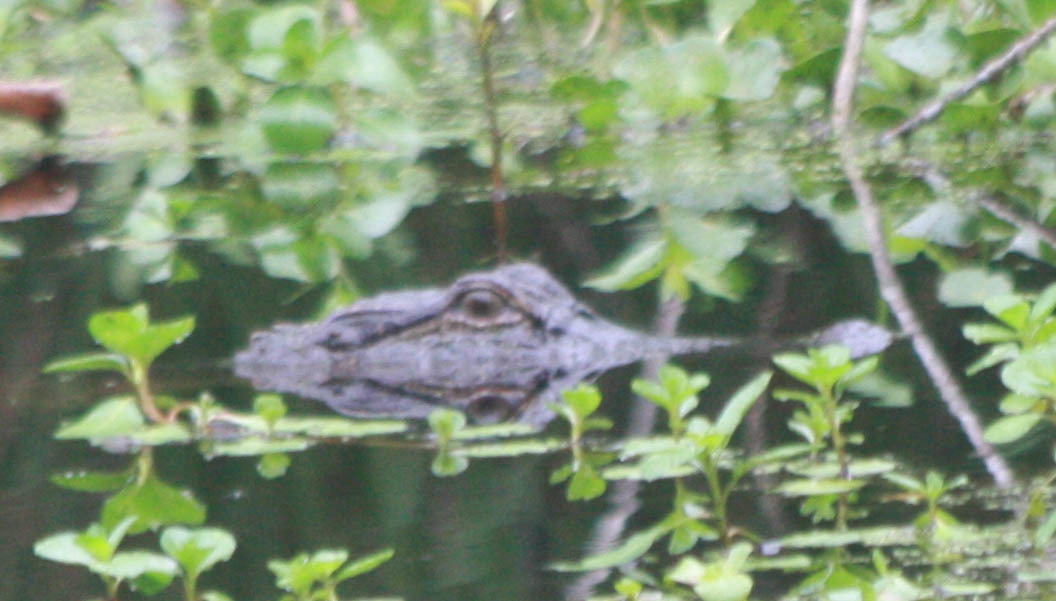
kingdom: Animalia
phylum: Chordata
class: Crocodylia
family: Alligatoridae
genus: Alligator
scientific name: Alligator mississippiensis
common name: American alligator
